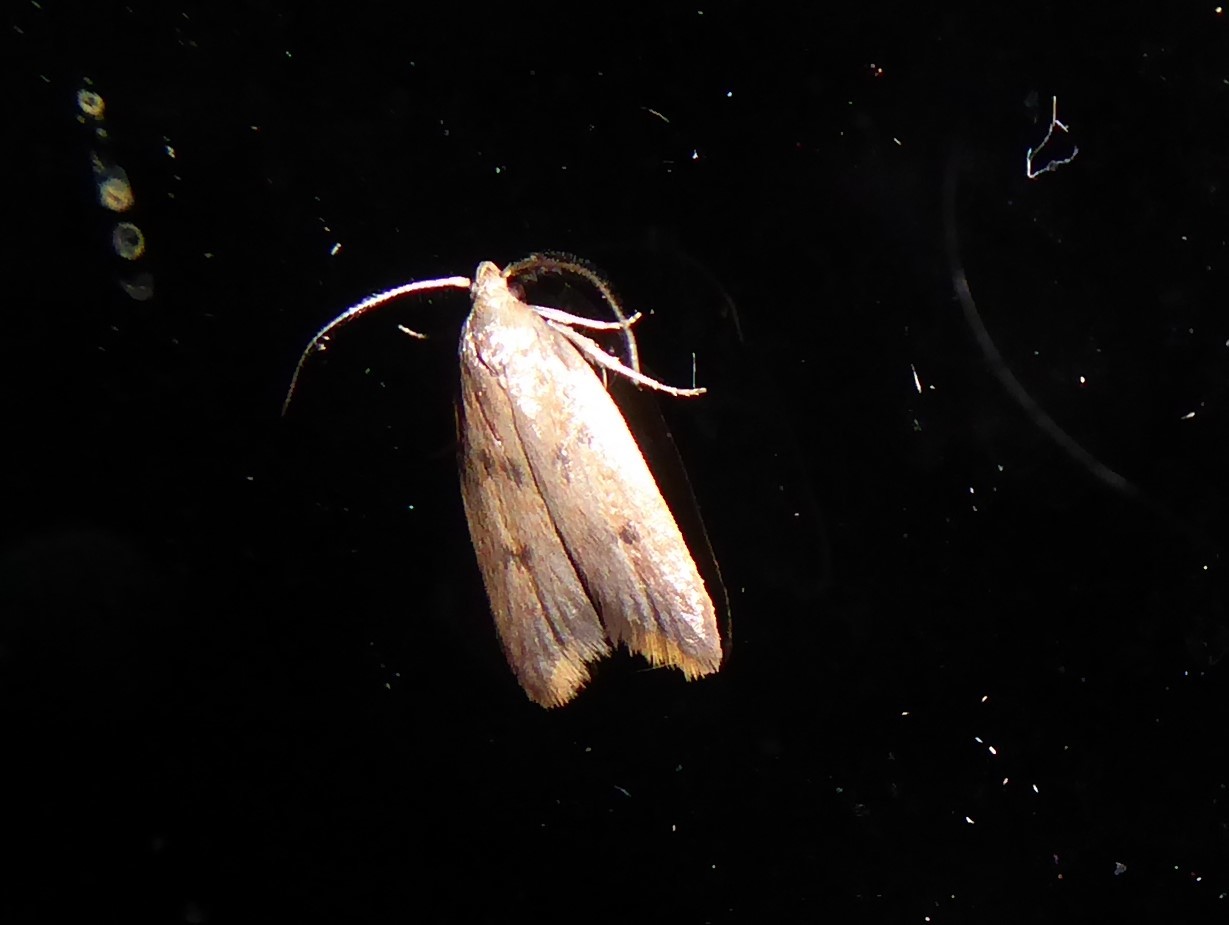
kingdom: Animalia
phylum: Arthropoda
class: Insecta
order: Lepidoptera
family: Oecophoridae
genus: Tachystola
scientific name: Tachystola acroxantha
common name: Ruddy streak
